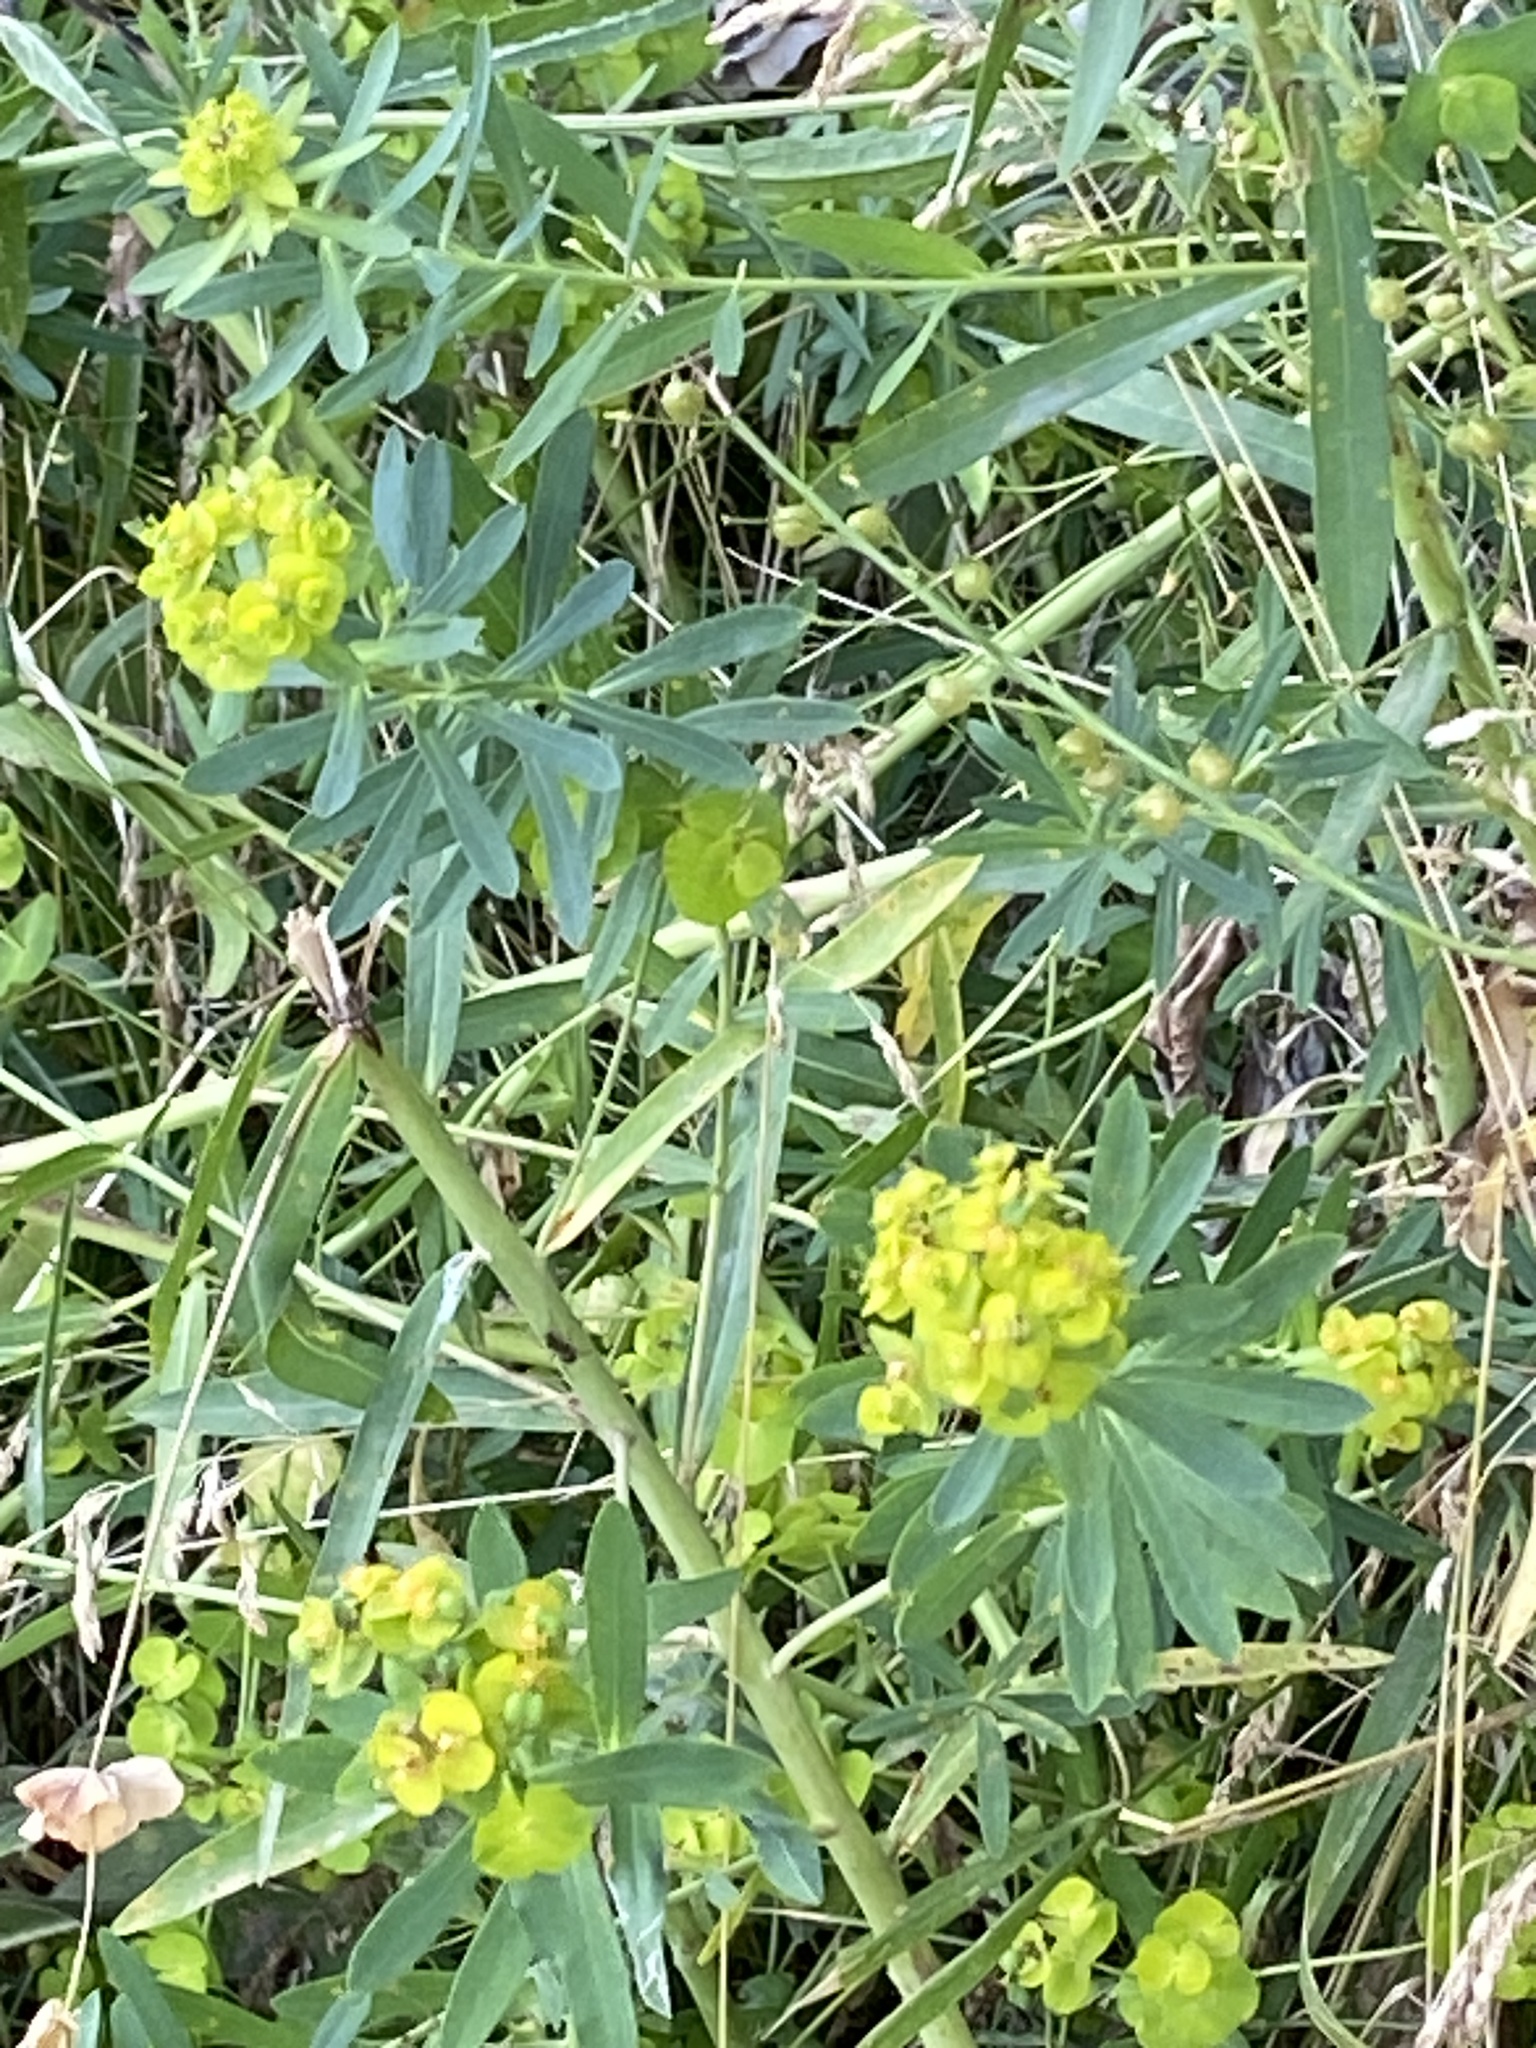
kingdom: Plantae
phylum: Tracheophyta
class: Magnoliopsida
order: Malpighiales
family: Euphorbiaceae
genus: Euphorbia
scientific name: Euphorbia virgata
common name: Leafy spurge
